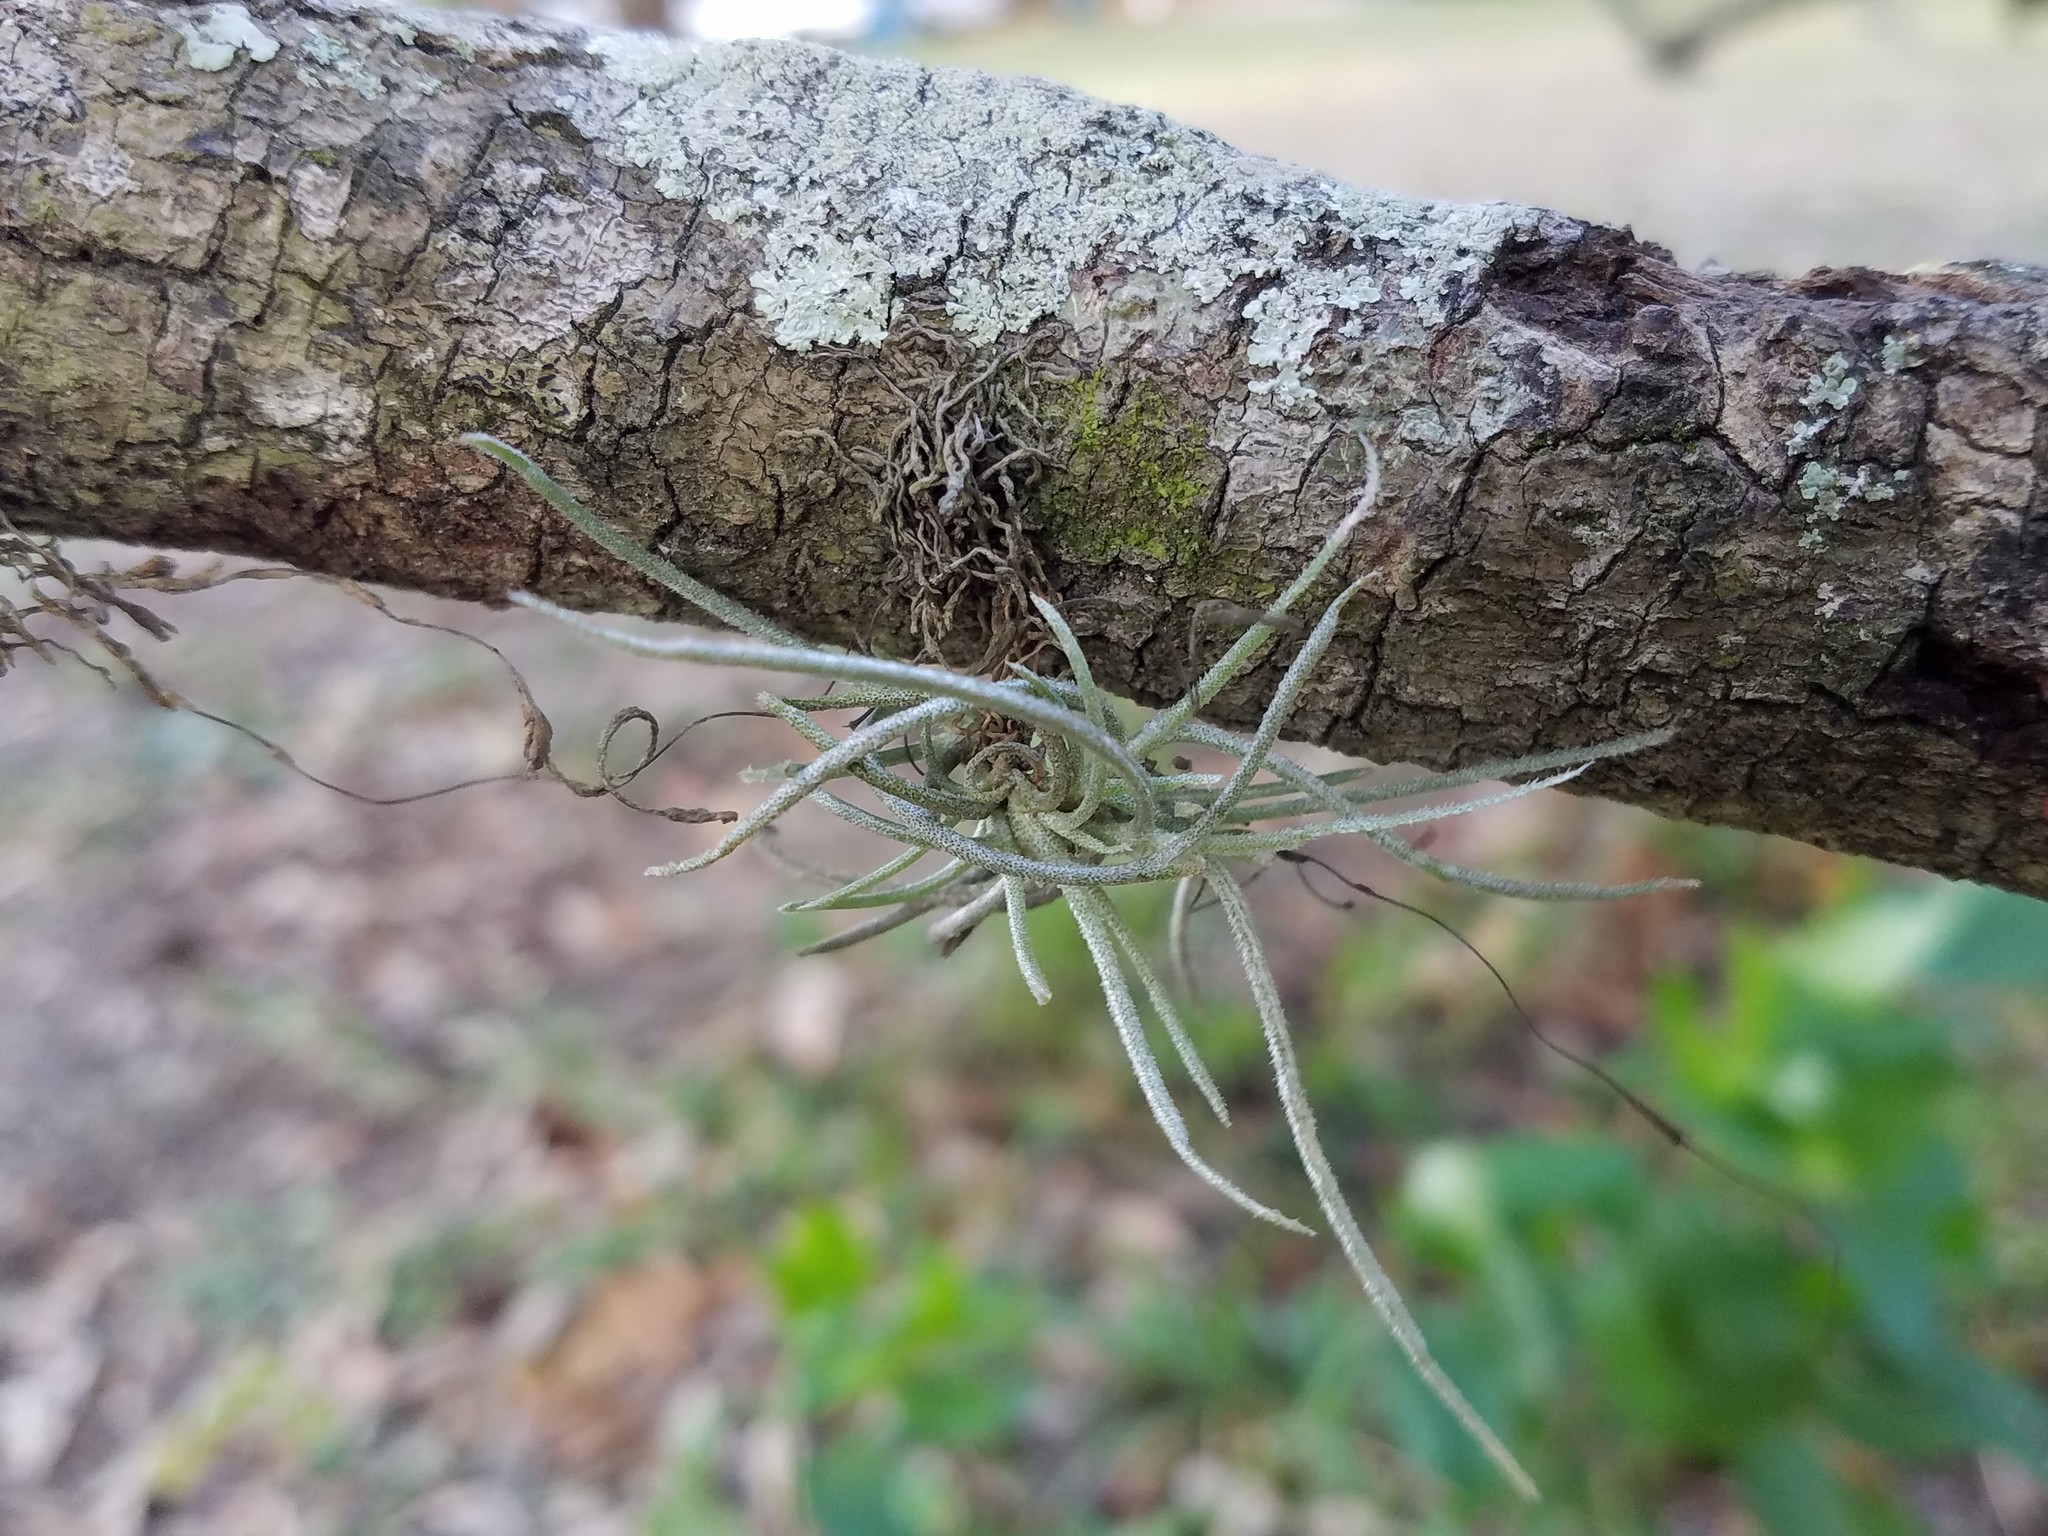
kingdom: Plantae
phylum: Tracheophyta
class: Liliopsida
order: Poales
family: Bromeliaceae
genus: Tillandsia
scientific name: Tillandsia recurvata
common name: Small ballmoss
